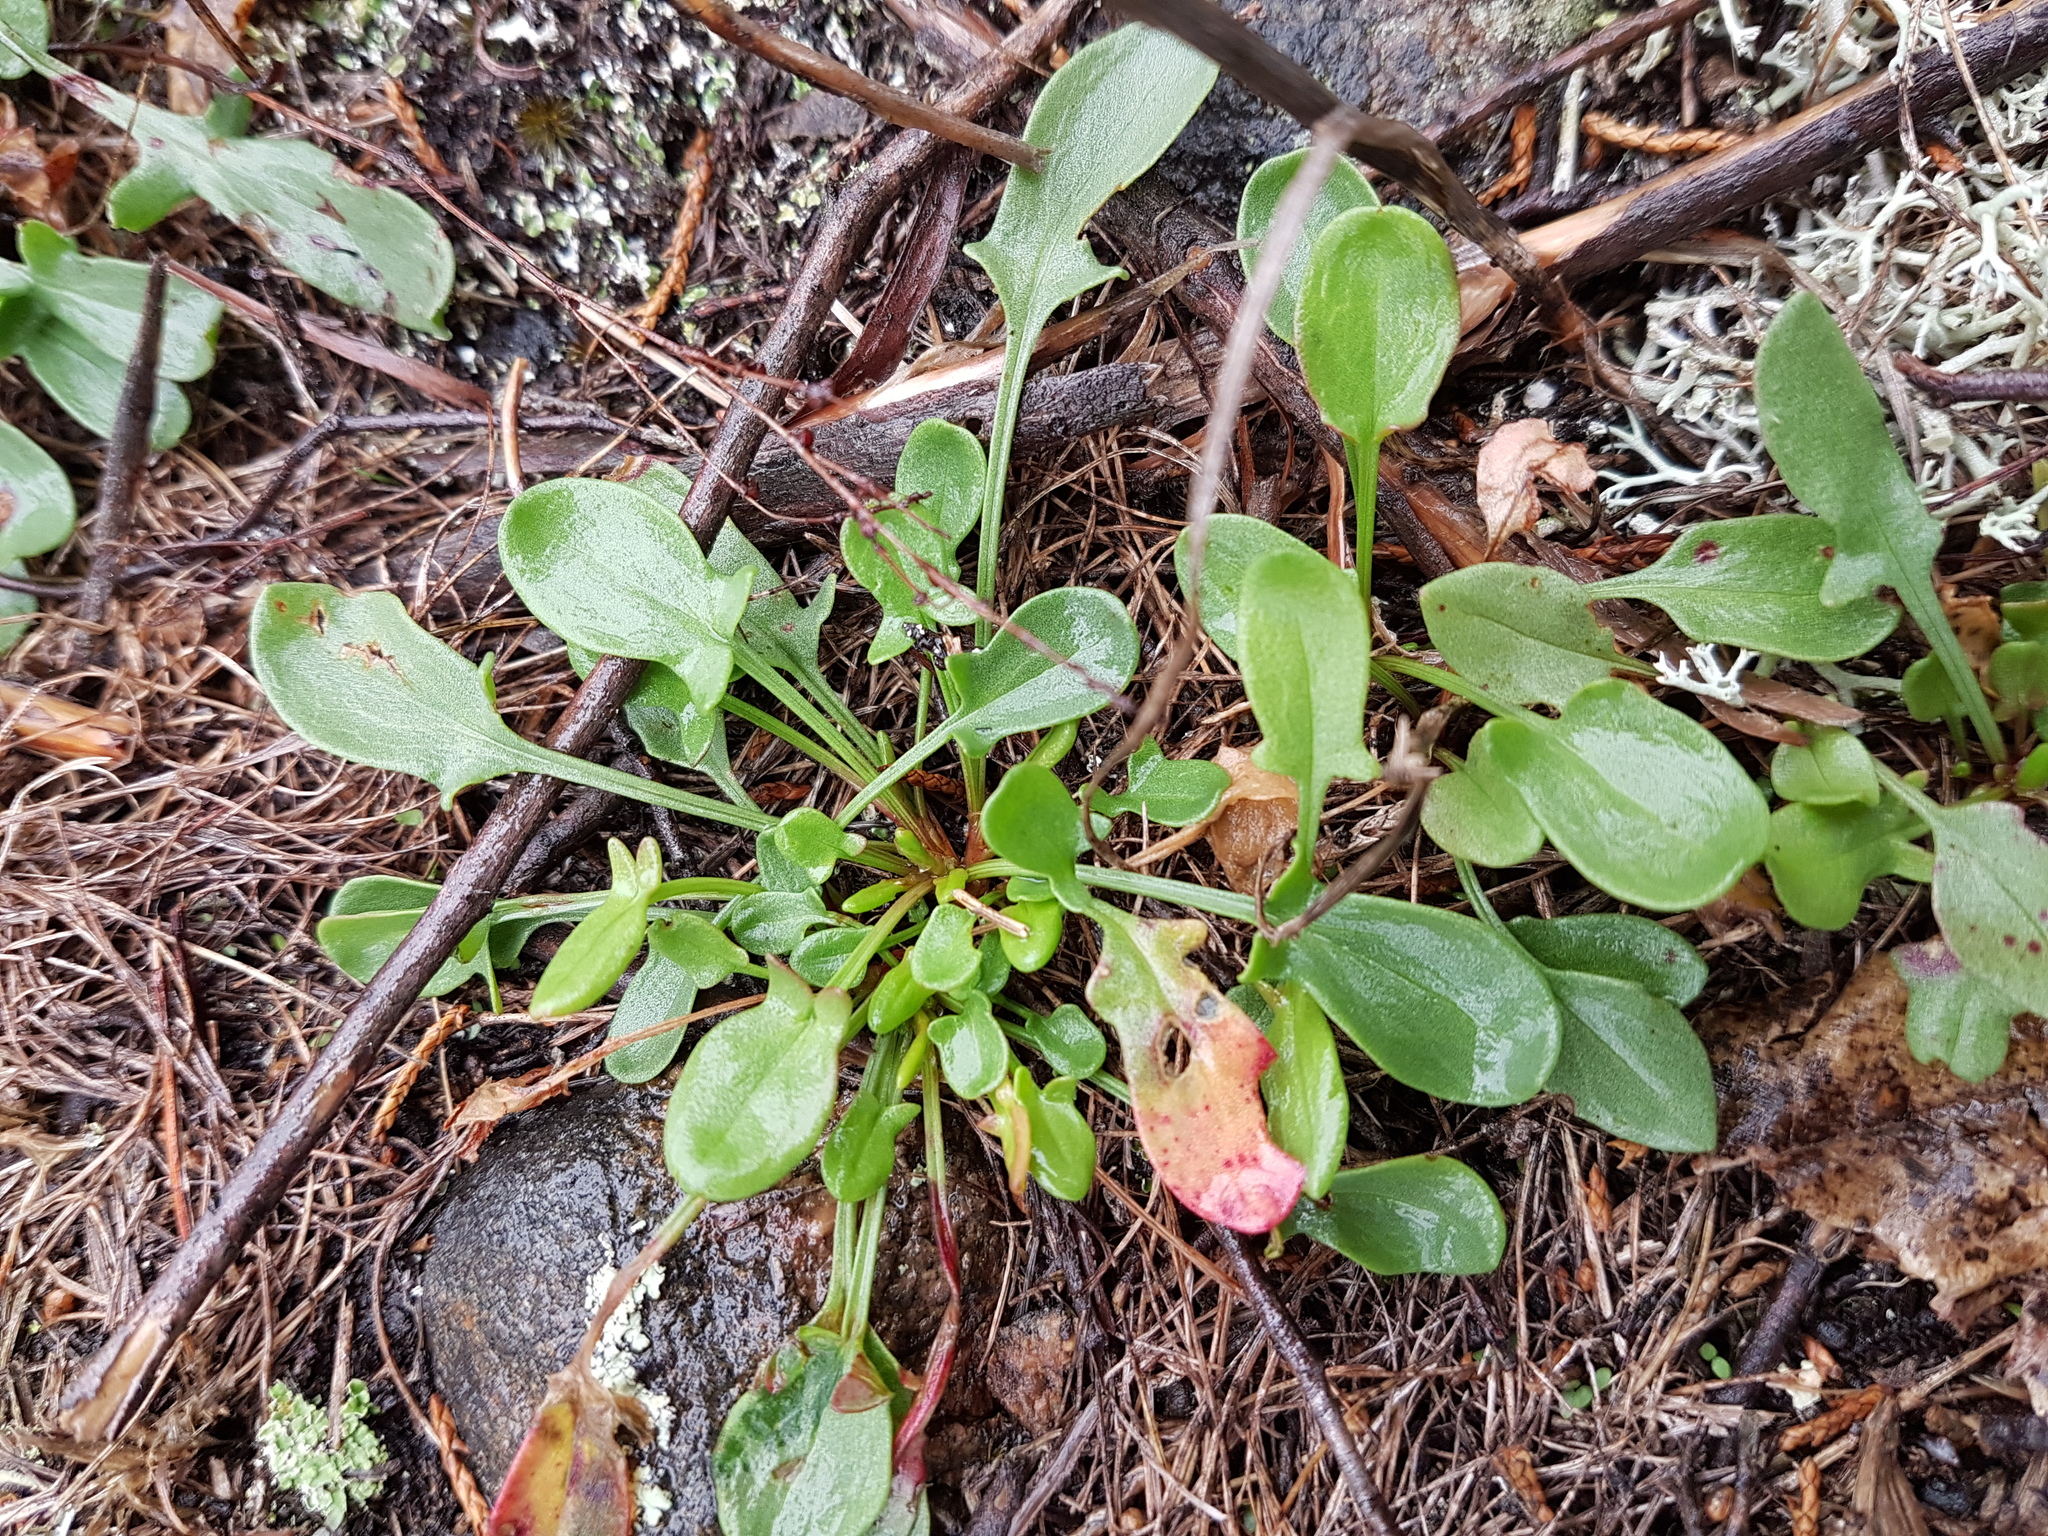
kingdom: Plantae
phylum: Tracheophyta
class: Magnoliopsida
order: Caryophyllales
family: Polygonaceae
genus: Rumex
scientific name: Rumex acetosella
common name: Common sheep sorrel
